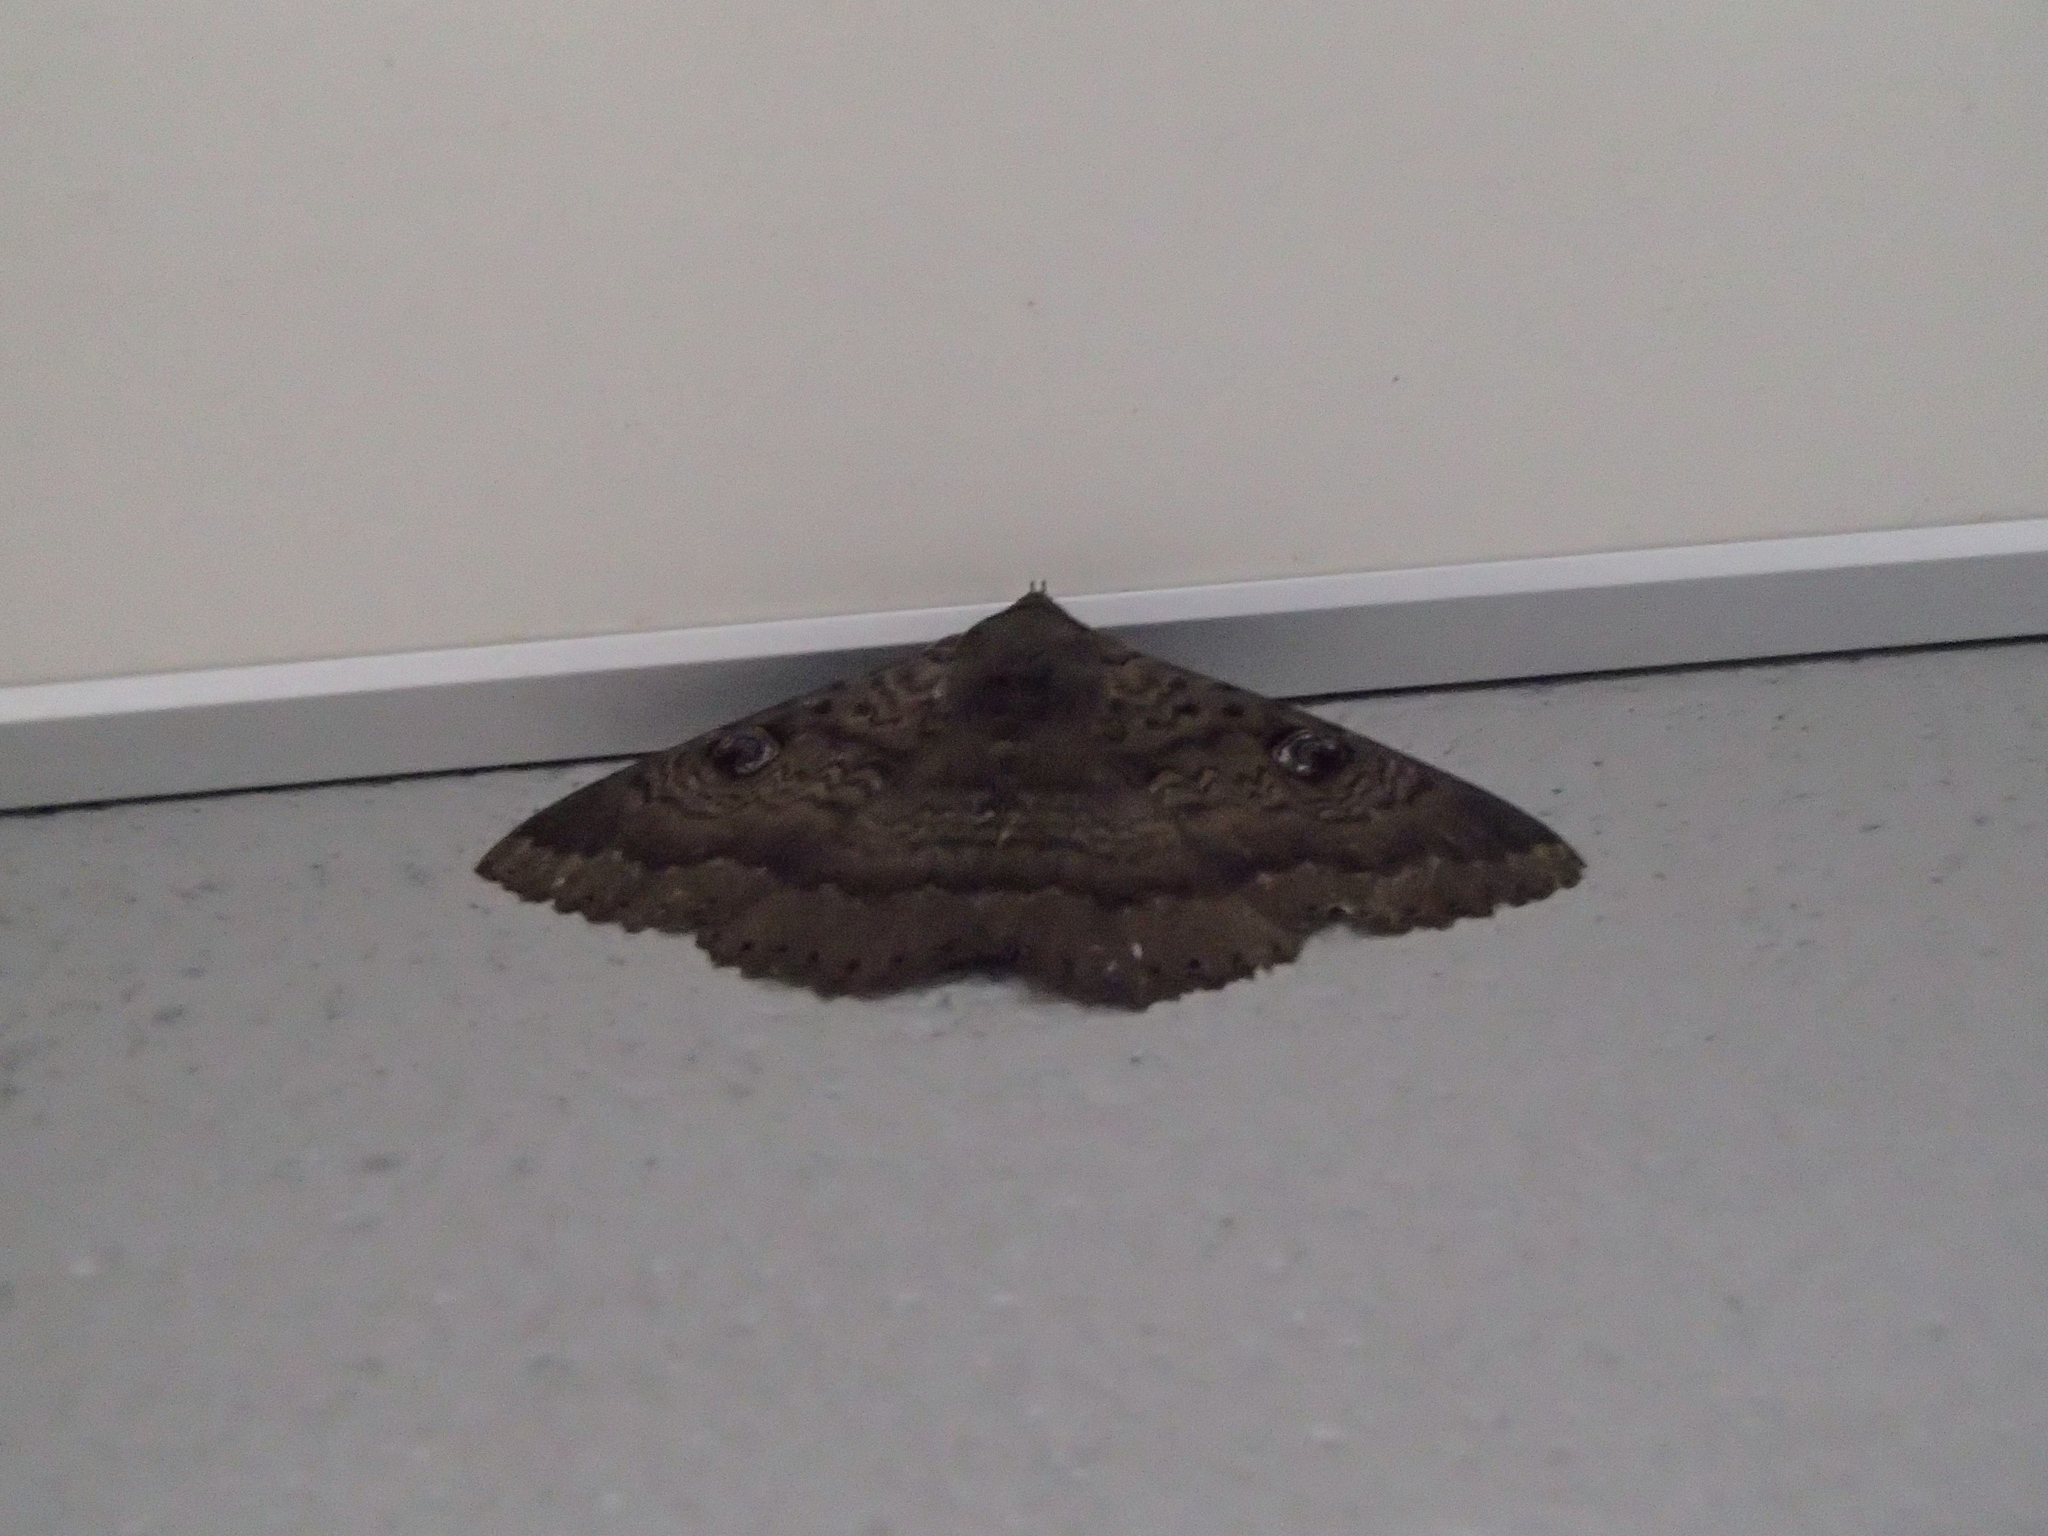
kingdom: Animalia
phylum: Arthropoda
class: Insecta
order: Lepidoptera
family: Erebidae
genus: Dasypodia
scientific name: Dasypodia cymatodes
